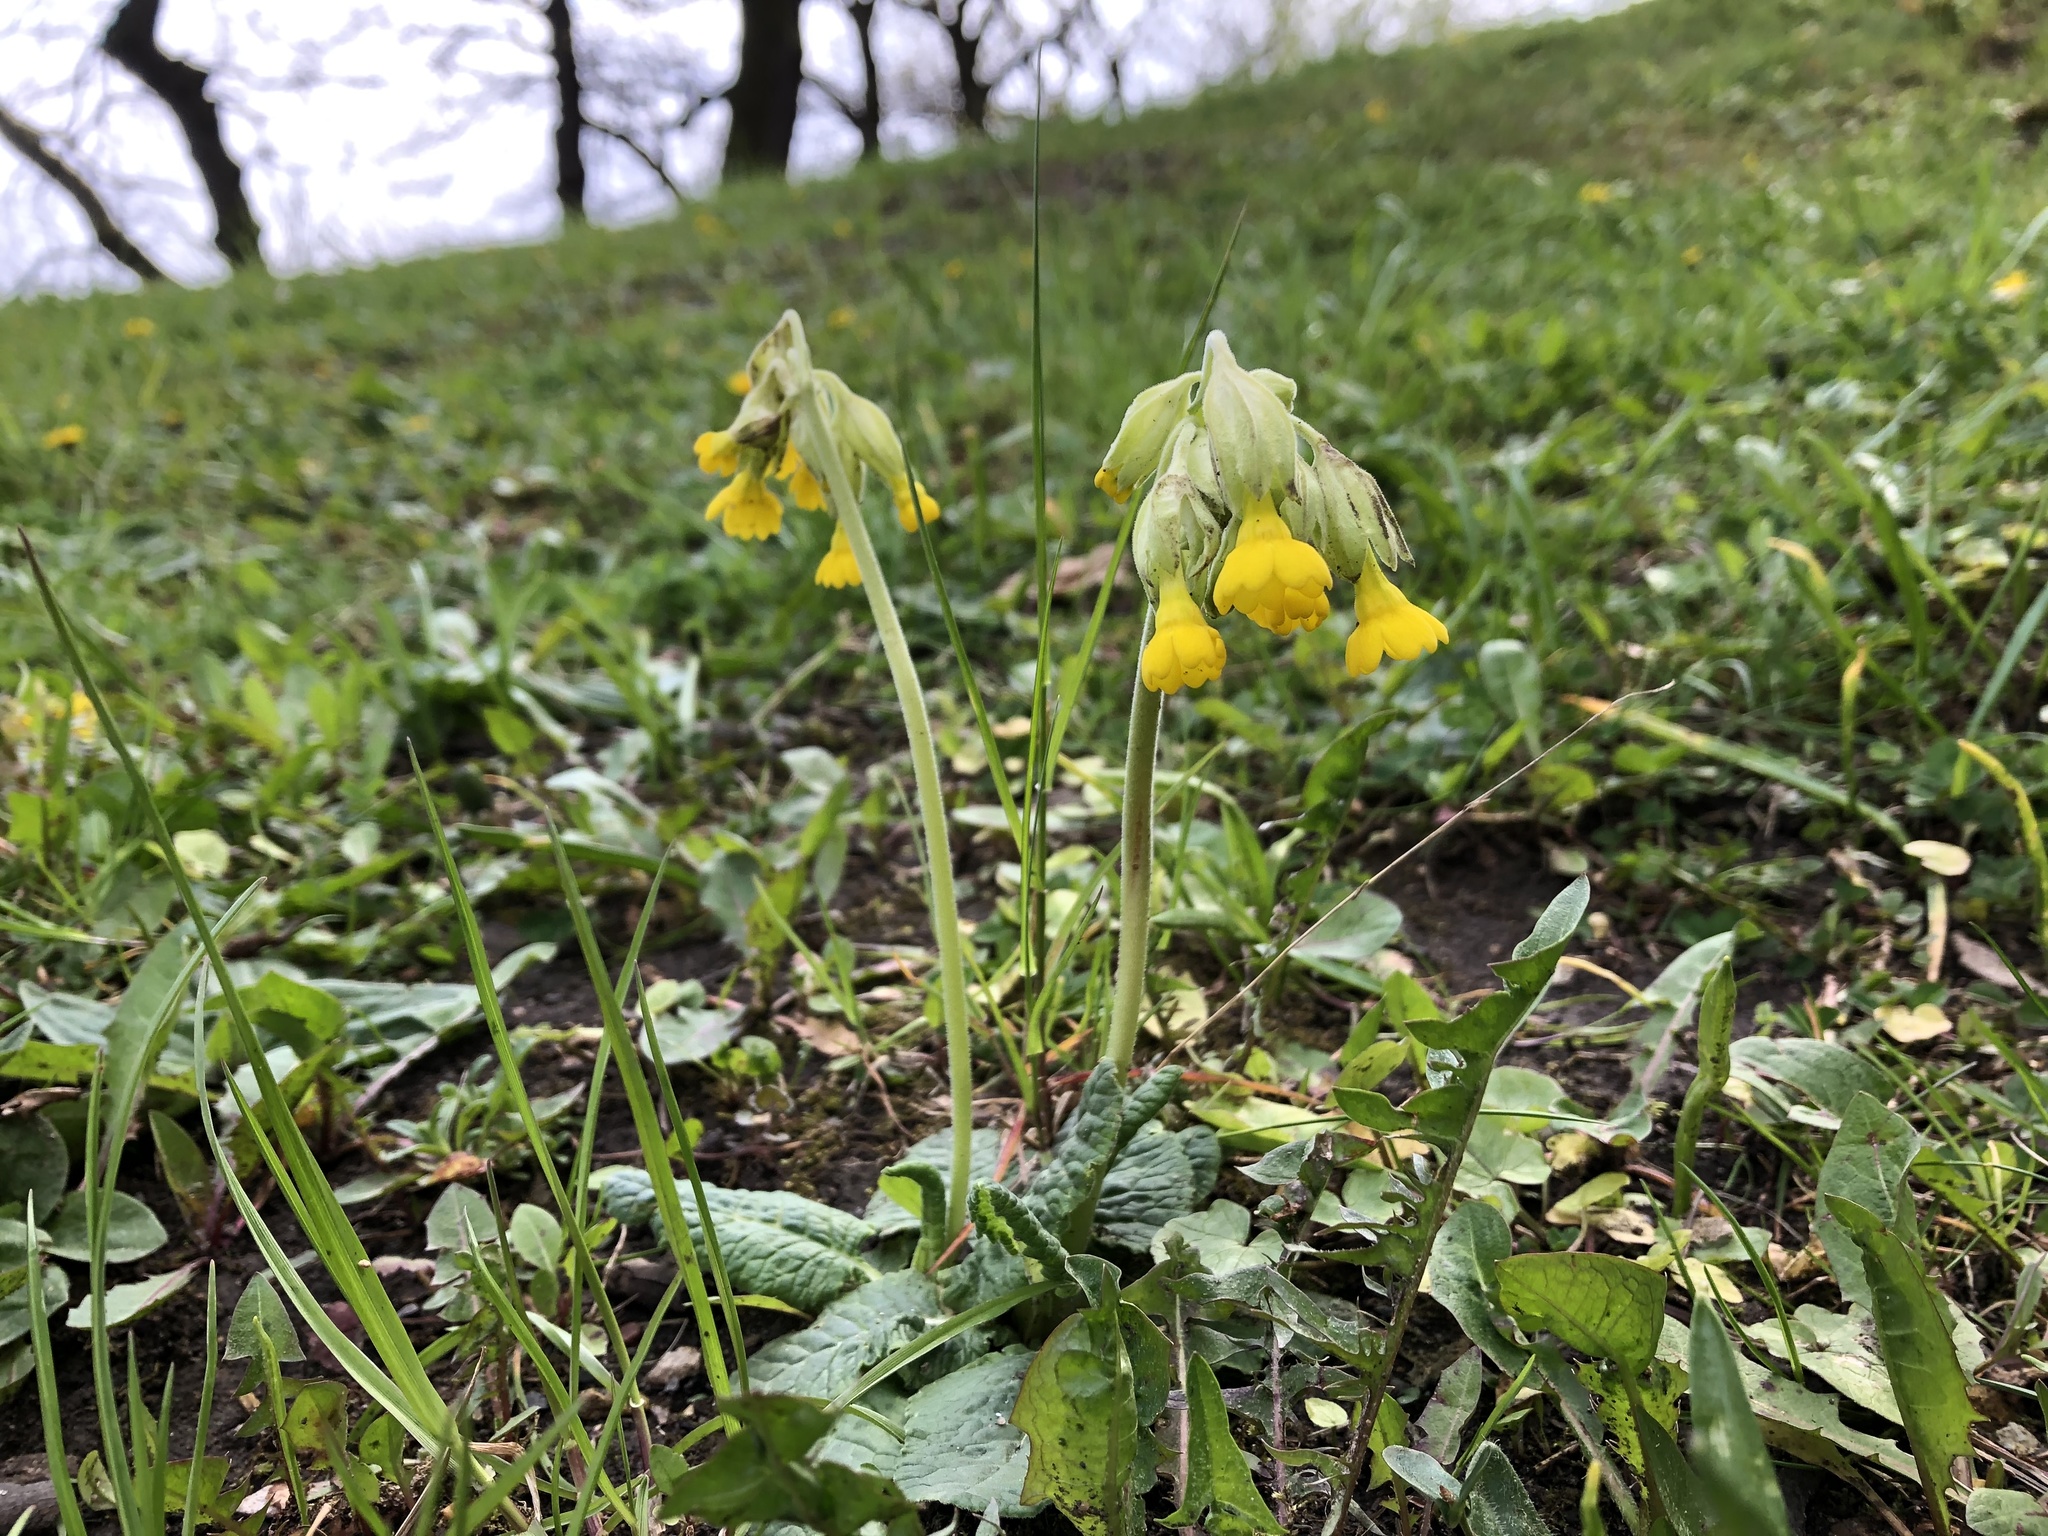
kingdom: Plantae
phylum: Tracheophyta
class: Magnoliopsida
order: Ericales
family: Primulaceae
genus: Primula
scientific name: Primula veris
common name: Cowslip
